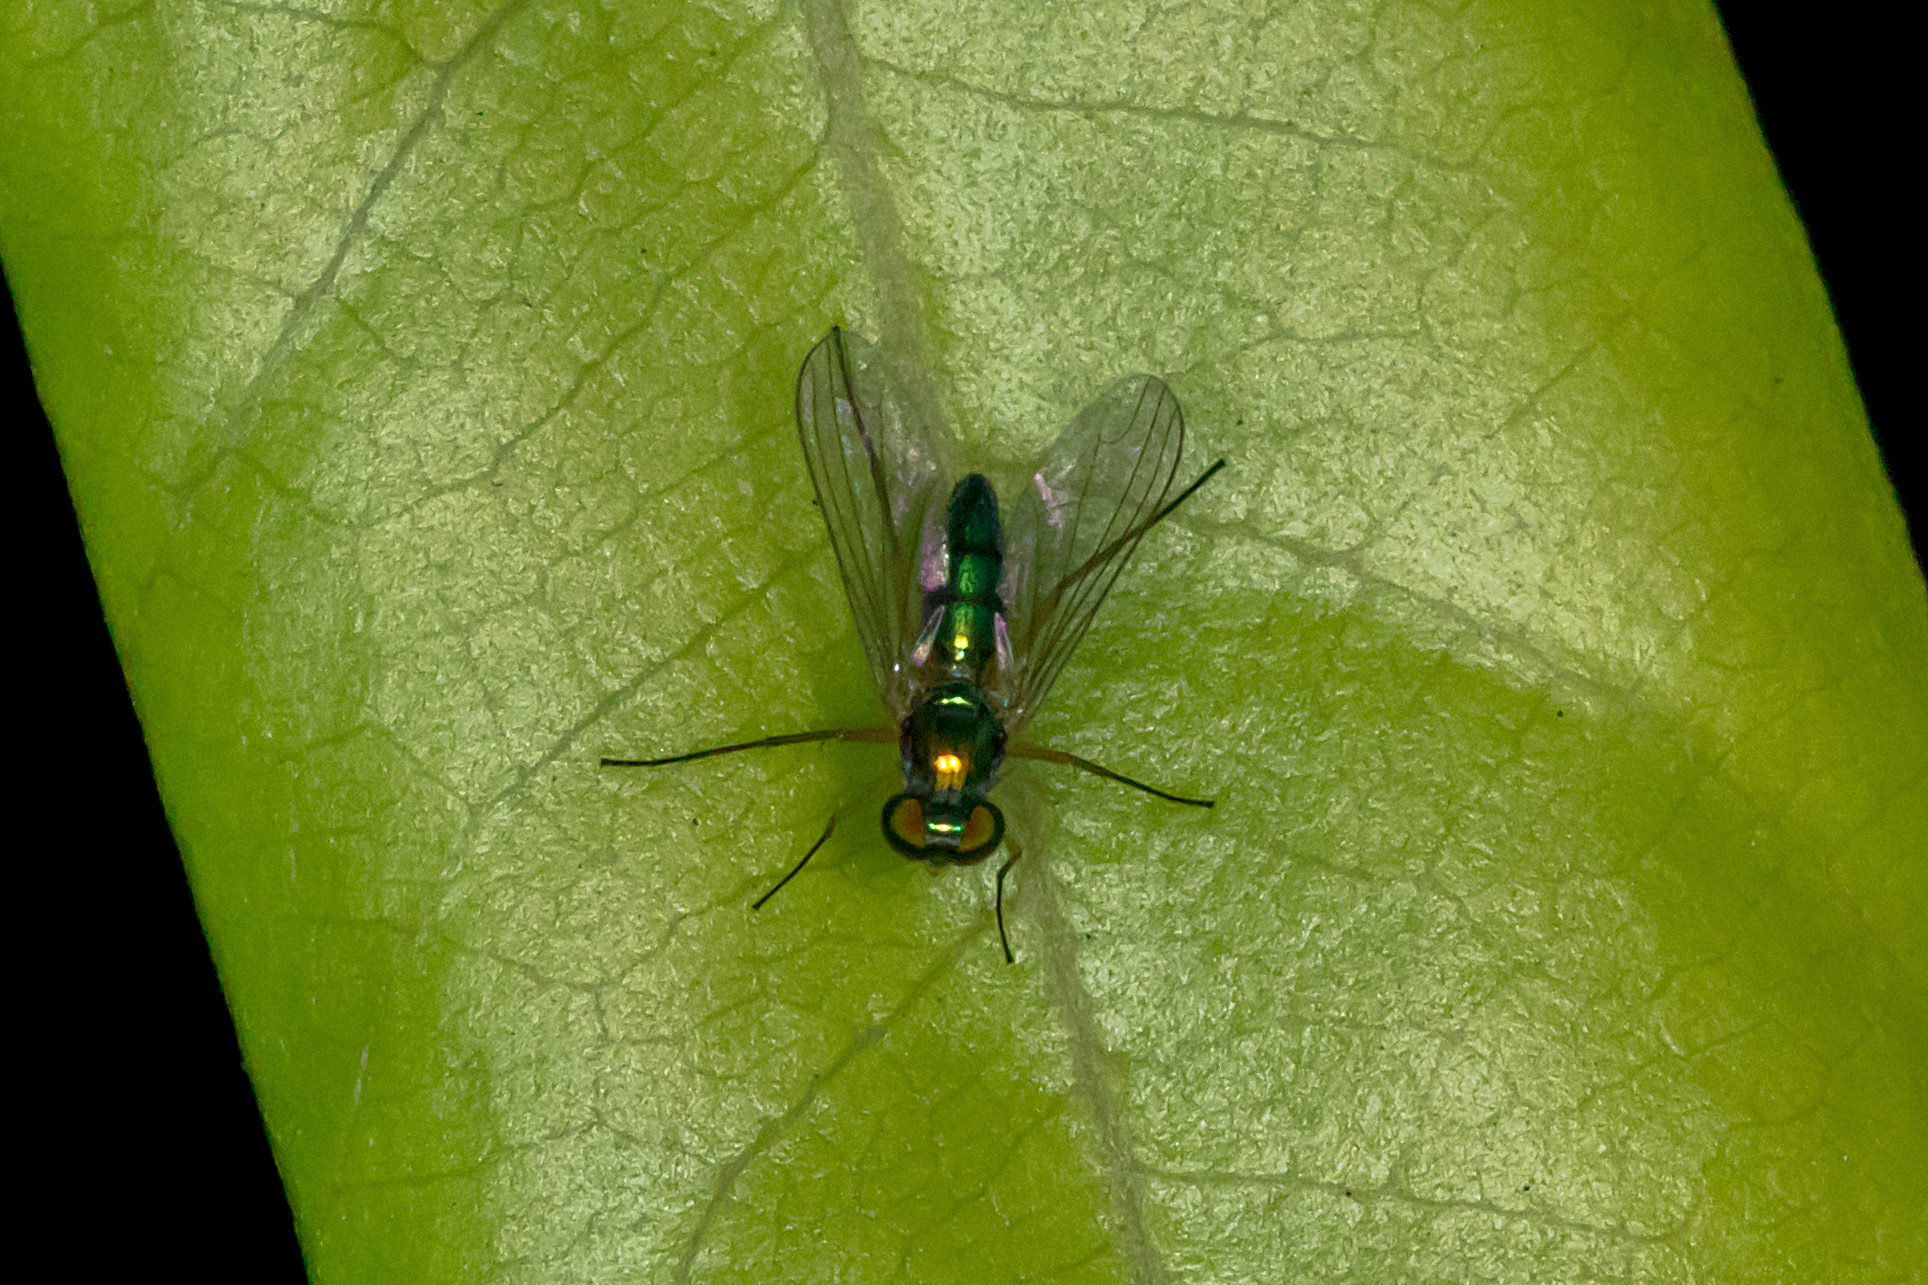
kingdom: Animalia
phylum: Arthropoda
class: Insecta
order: Diptera
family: Dolichopodidae
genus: Amblypsilopus
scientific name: Amblypsilopus zonatus
